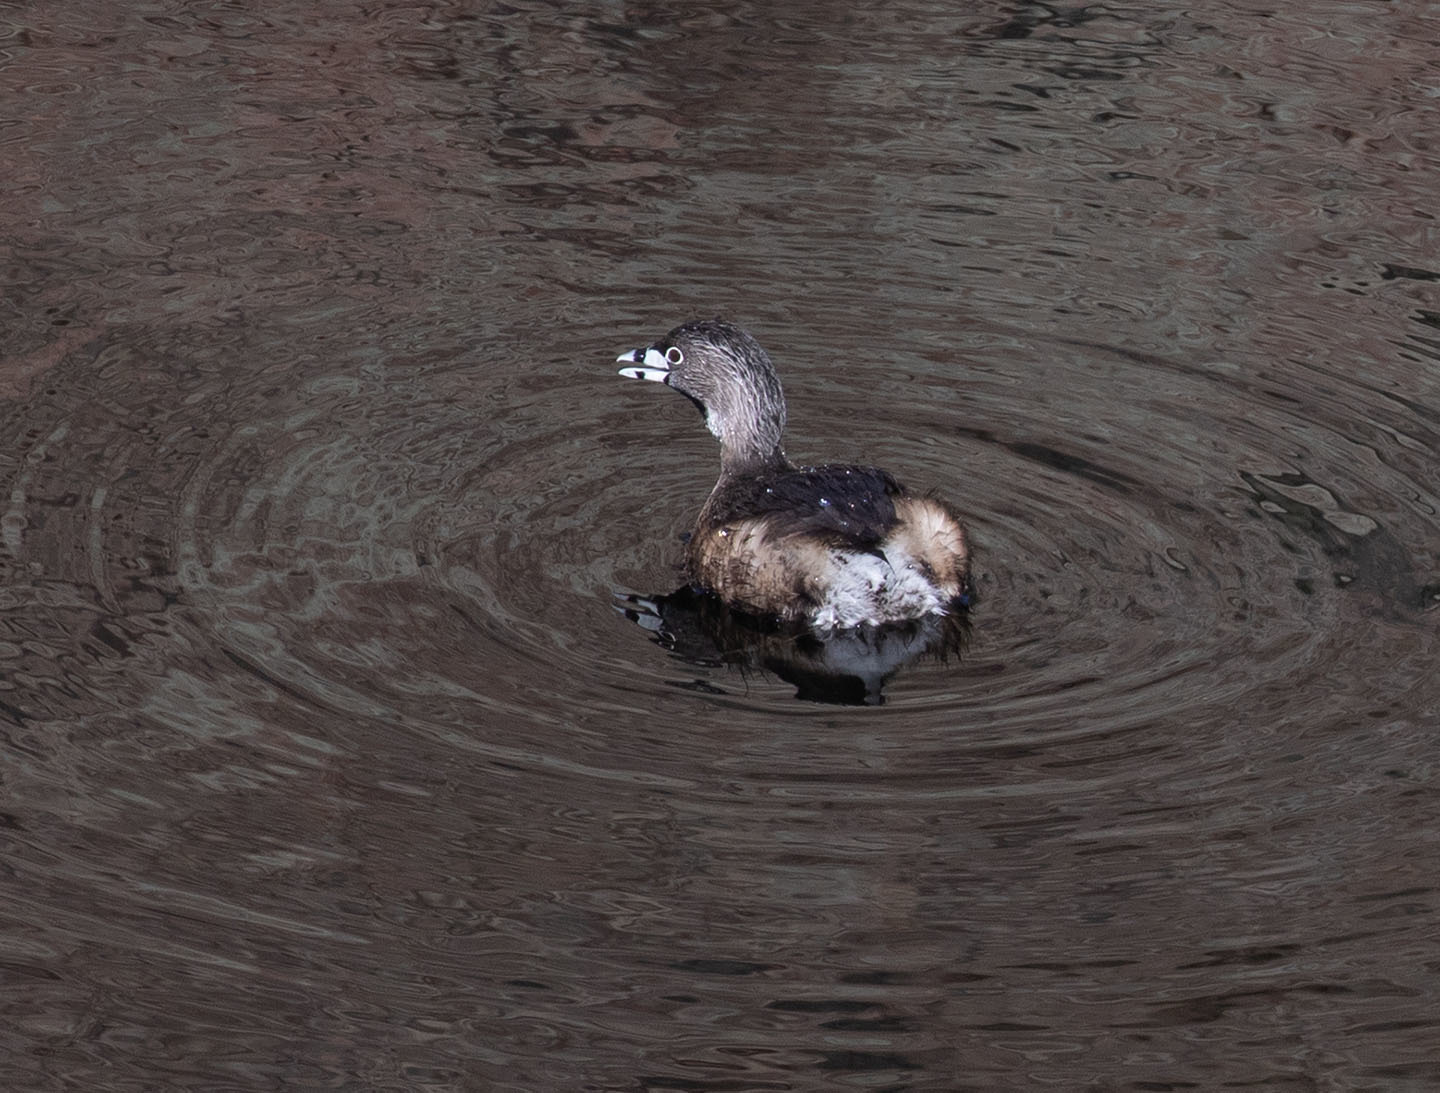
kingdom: Animalia
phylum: Chordata
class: Aves
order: Podicipediformes
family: Podicipedidae
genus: Podilymbus
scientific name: Podilymbus podiceps
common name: Pied-billed grebe
